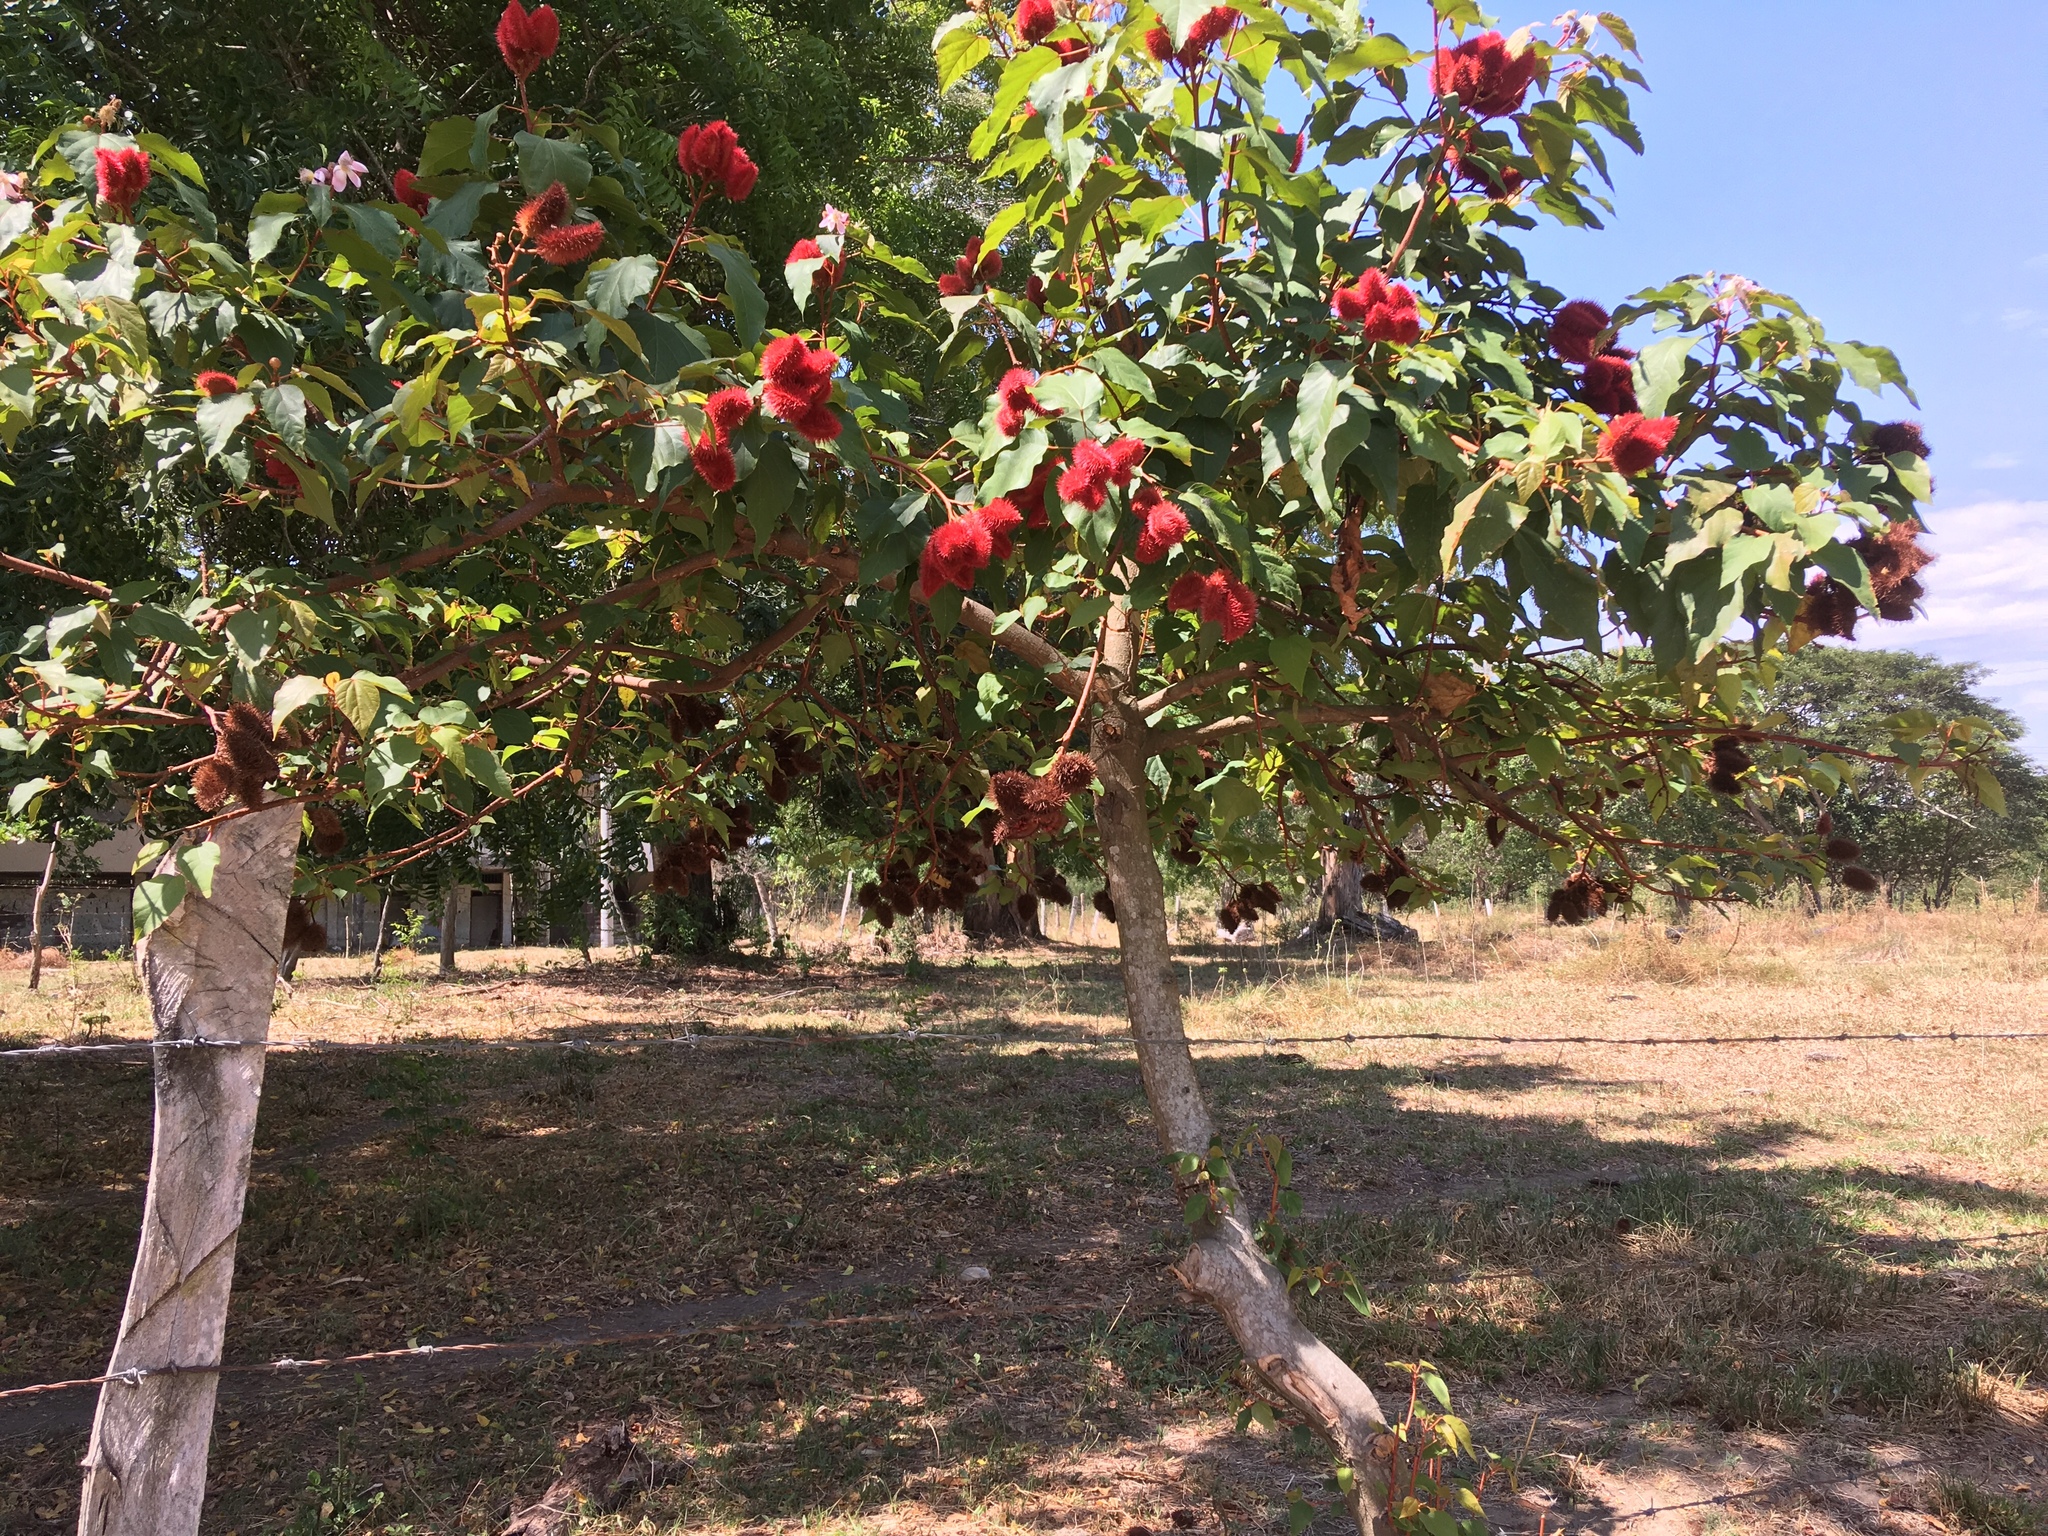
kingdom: Plantae
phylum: Tracheophyta
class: Magnoliopsida
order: Malvales
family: Bixaceae
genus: Bixa
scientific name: Bixa orellana
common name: Lipsticktree
